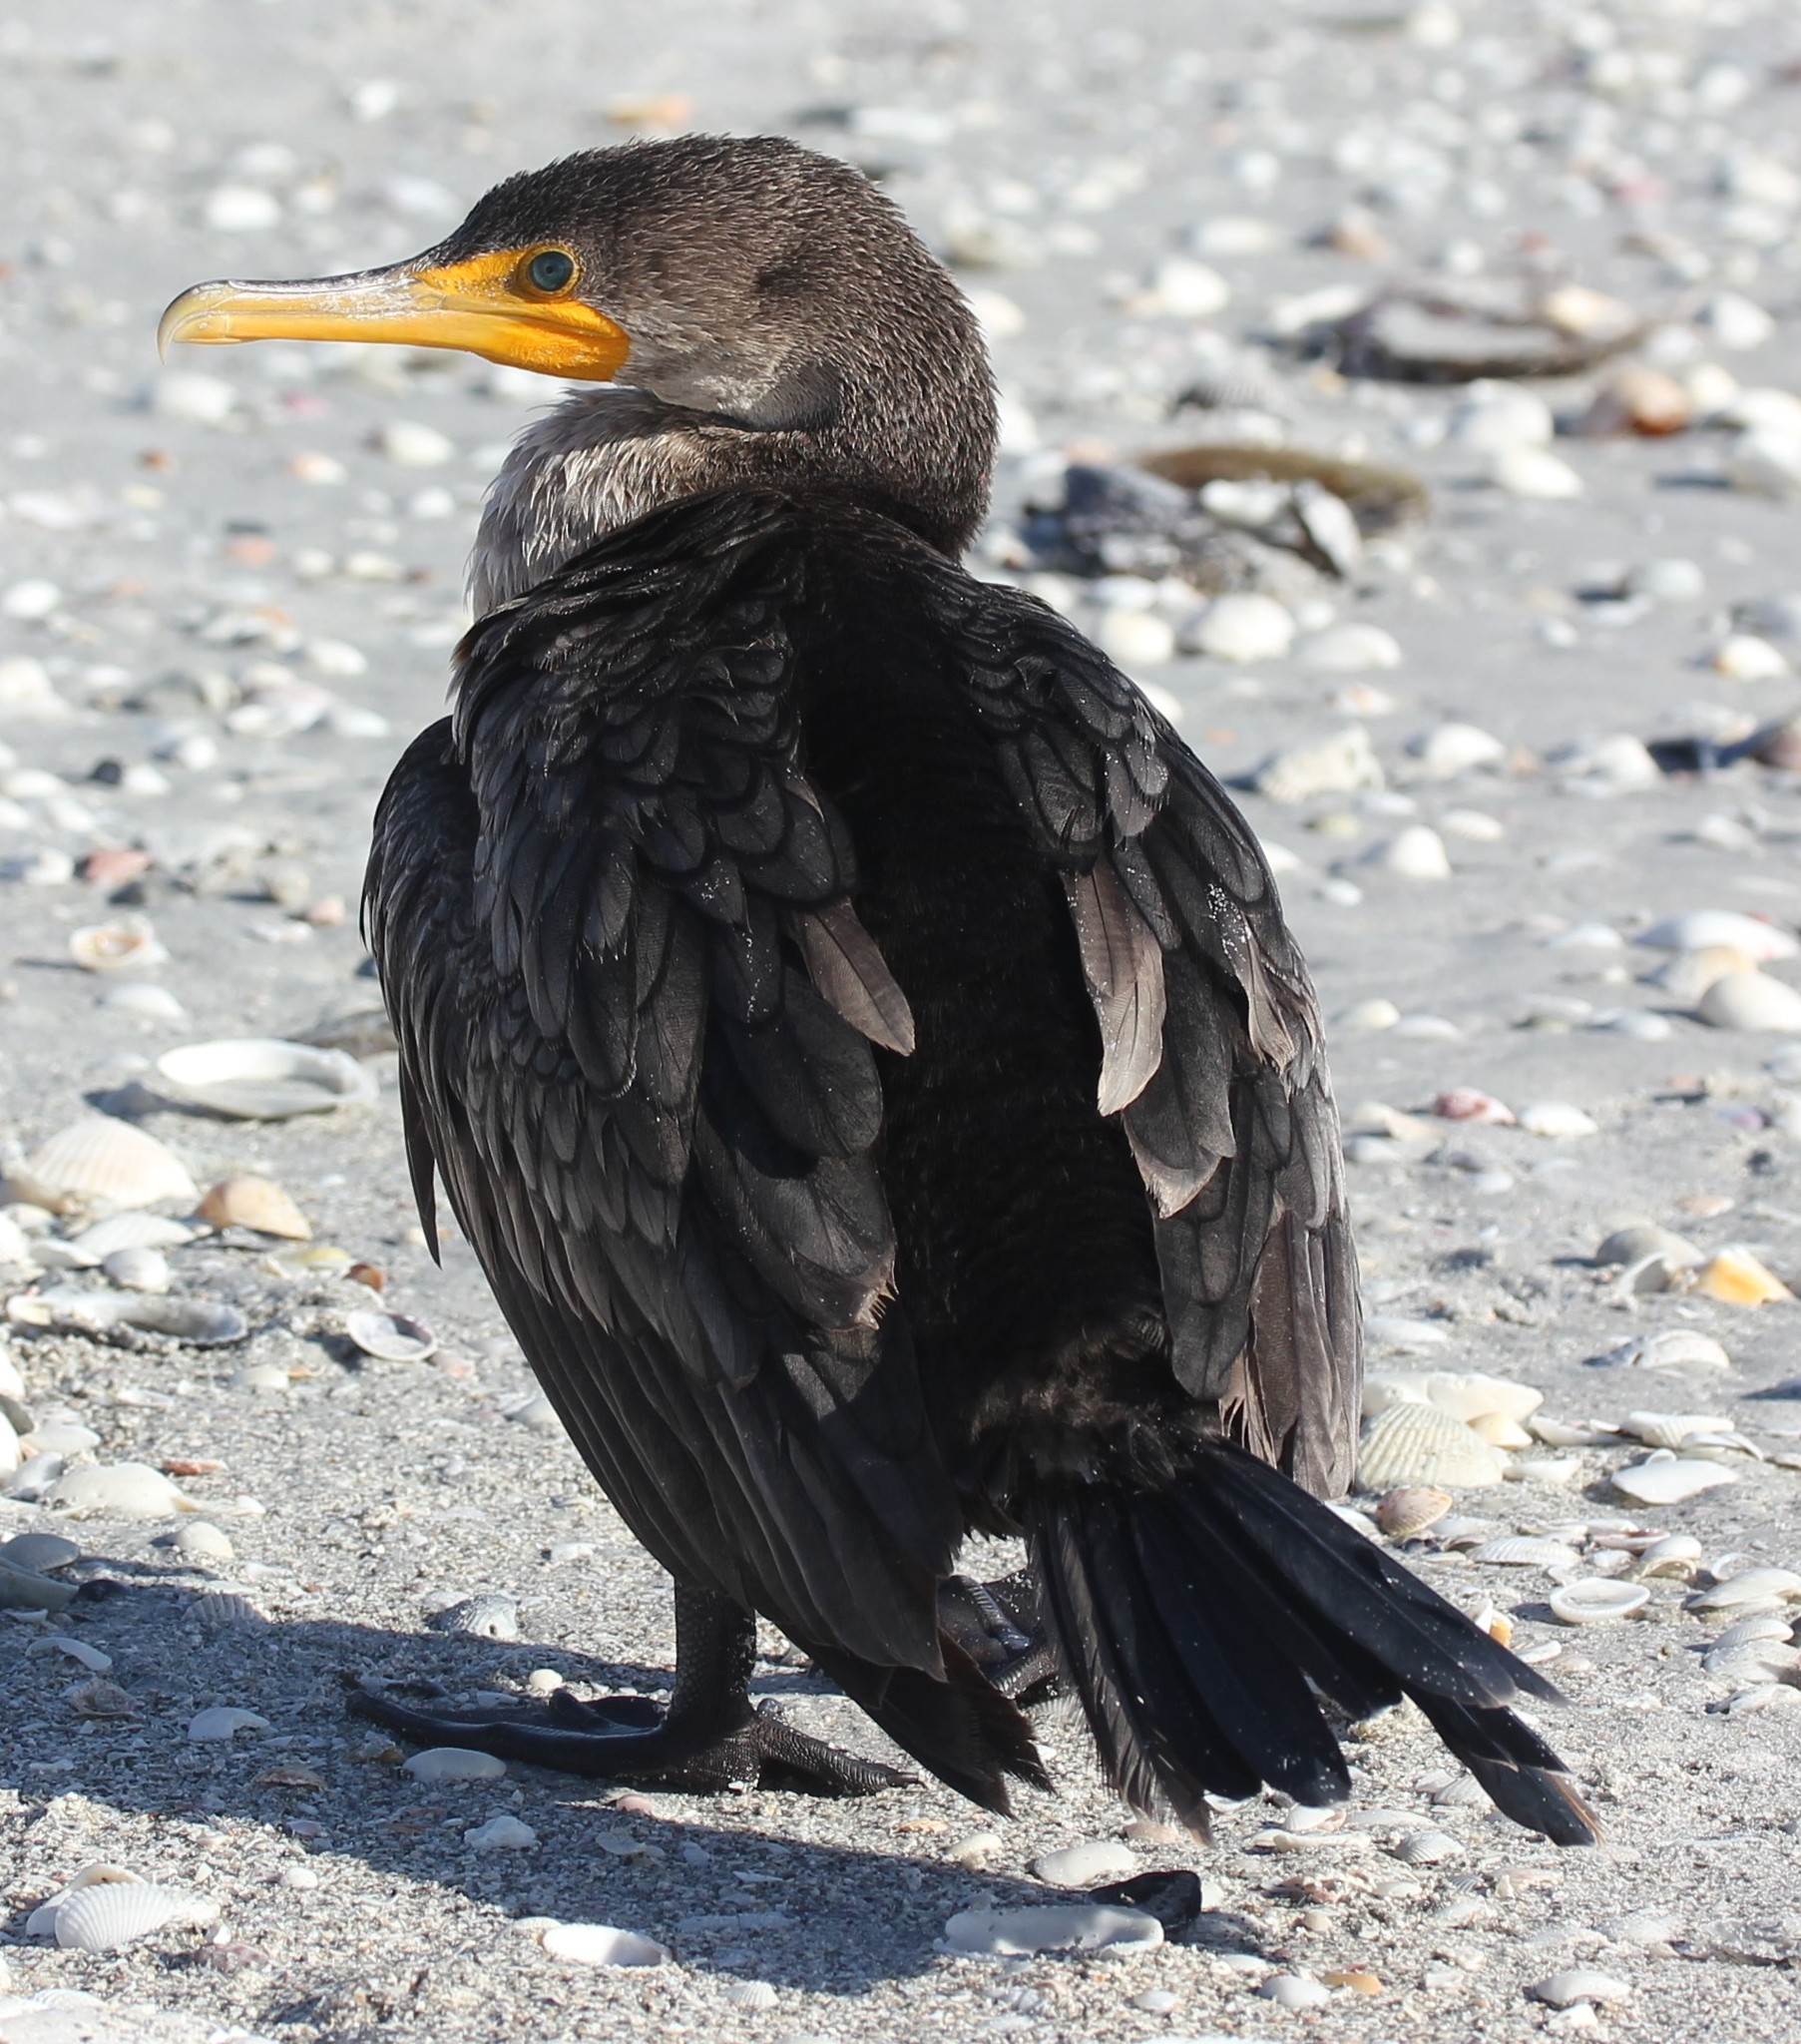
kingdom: Animalia
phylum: Chordata
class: Aves
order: Suliformes
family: Phalacrocoracidae
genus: Phalacrocorax
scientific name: Phalacrocorax auritus
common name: Double-crested cormorant
